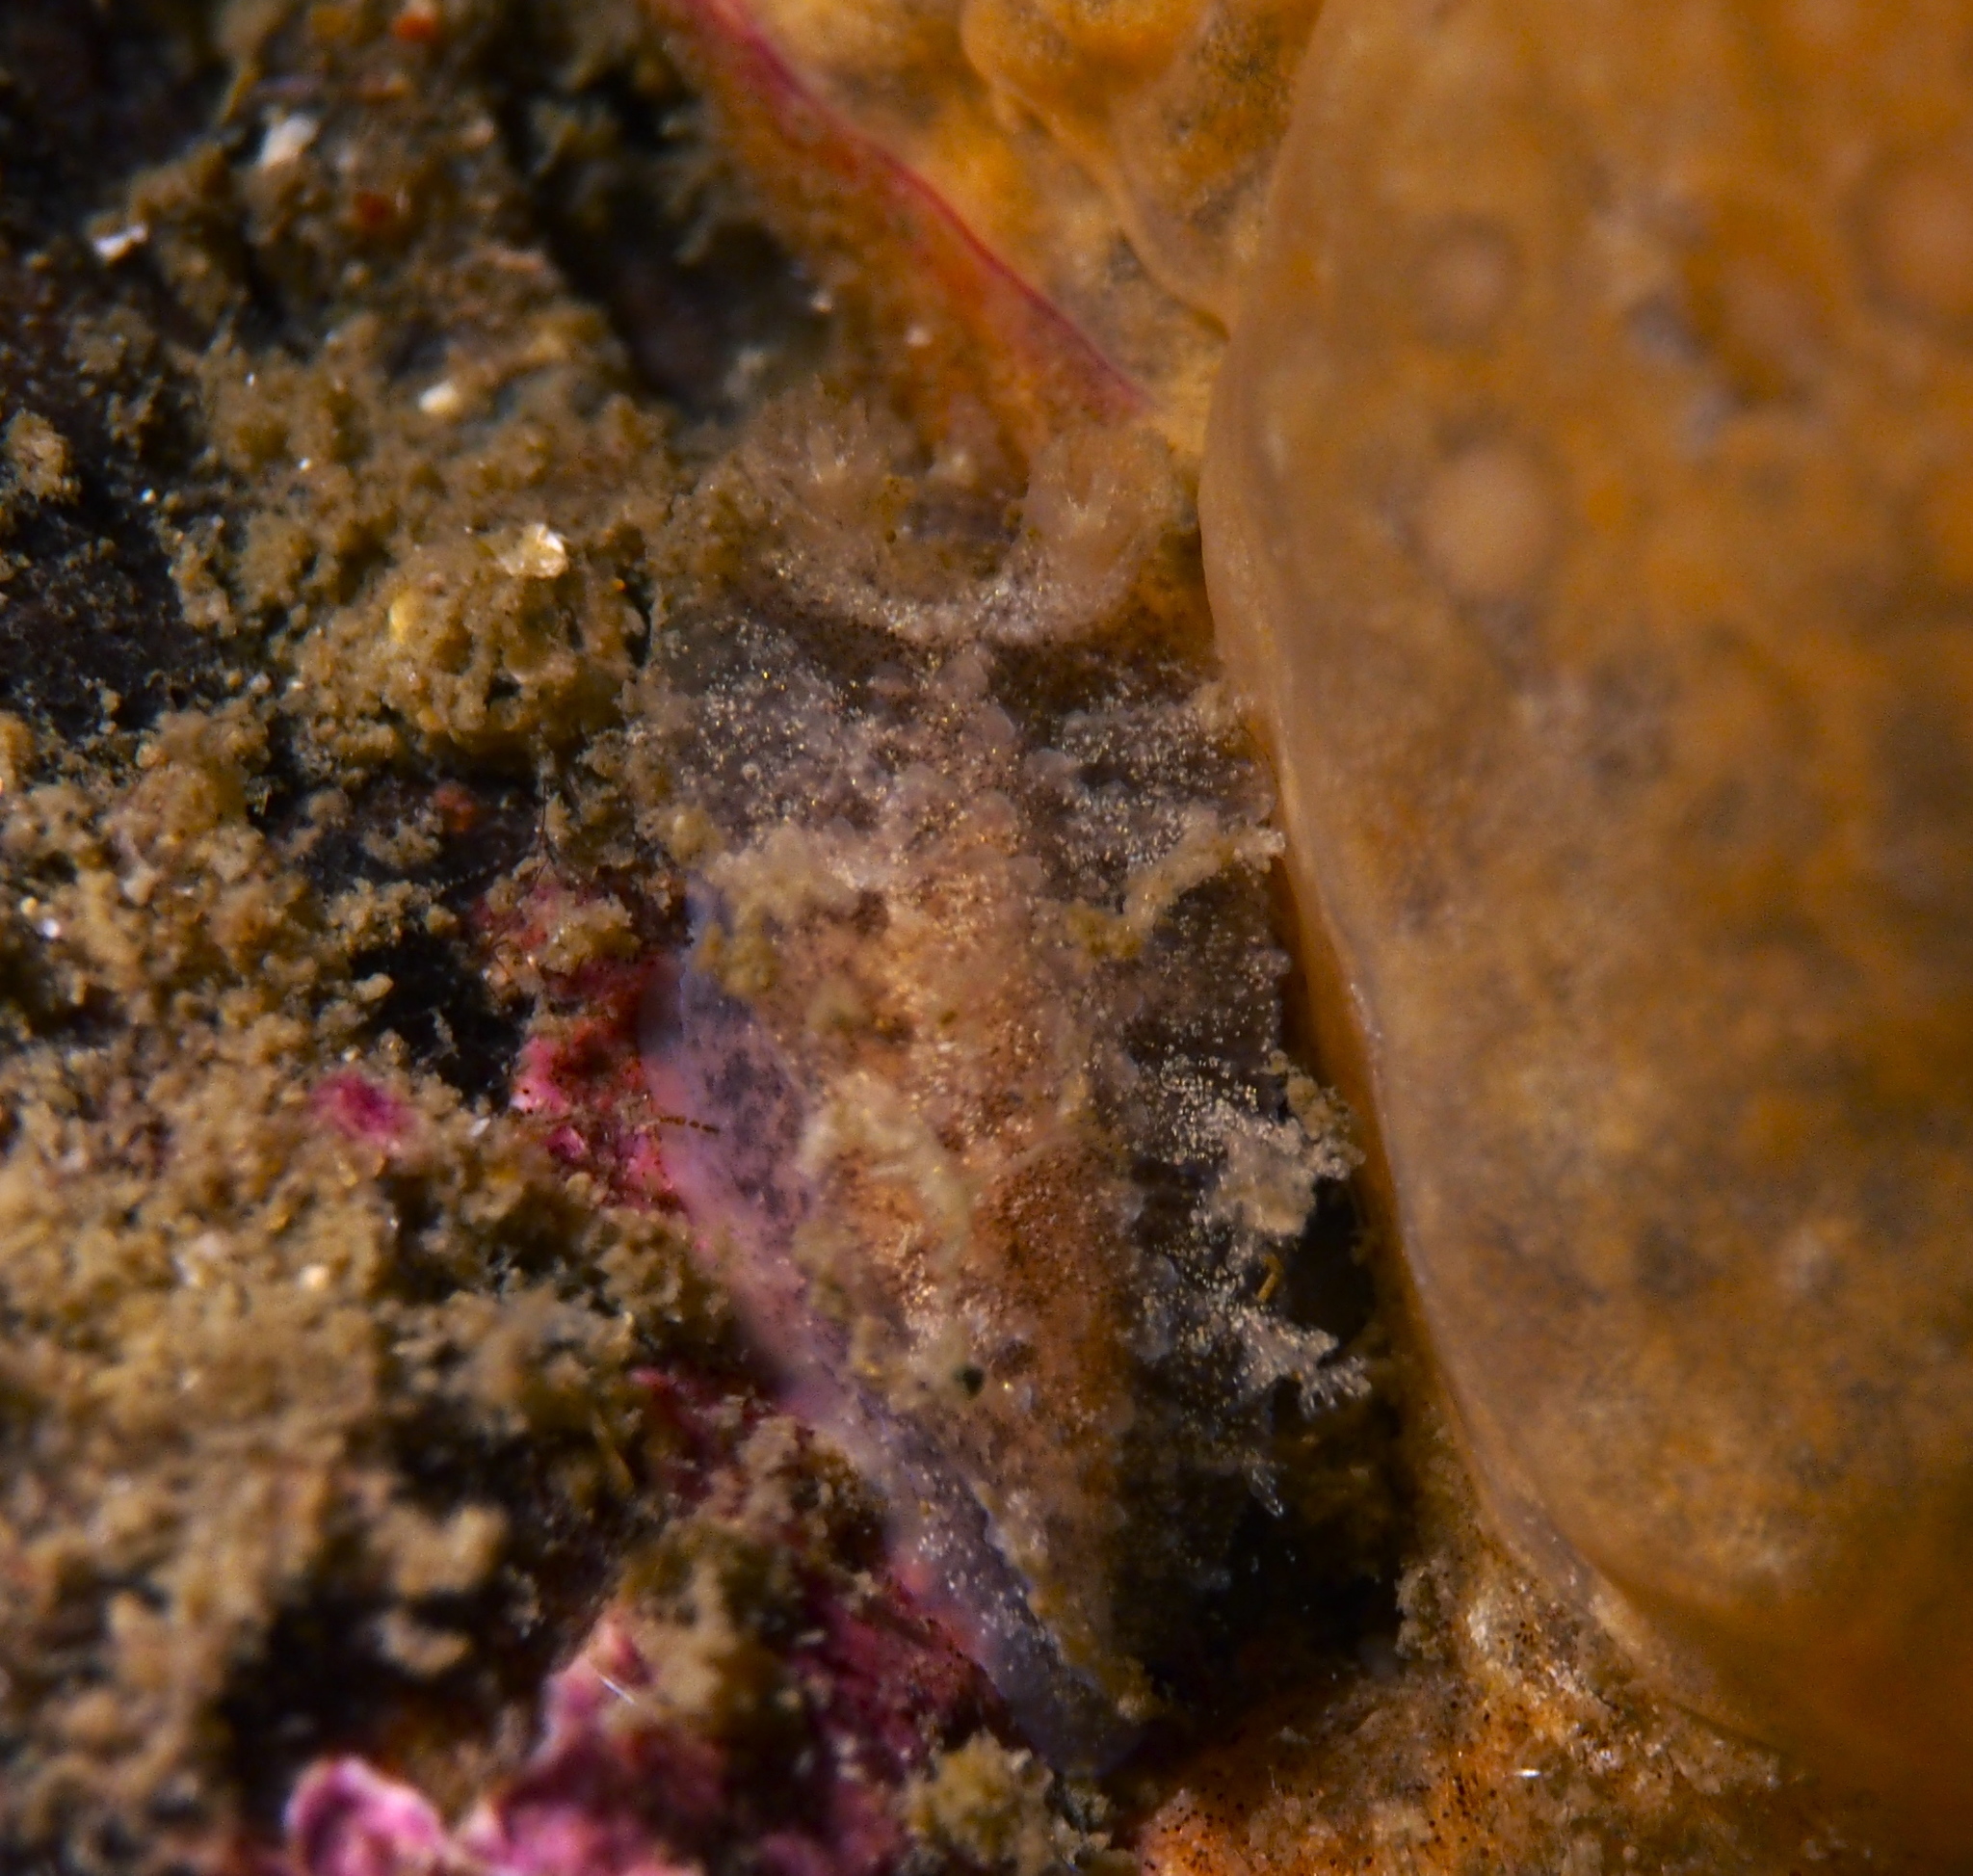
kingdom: Animalia
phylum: Mollusca
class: Gastropoda
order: Nudibranchia
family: Tritoniidae
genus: Duvaucelia
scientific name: Duvaucelia plebeia
